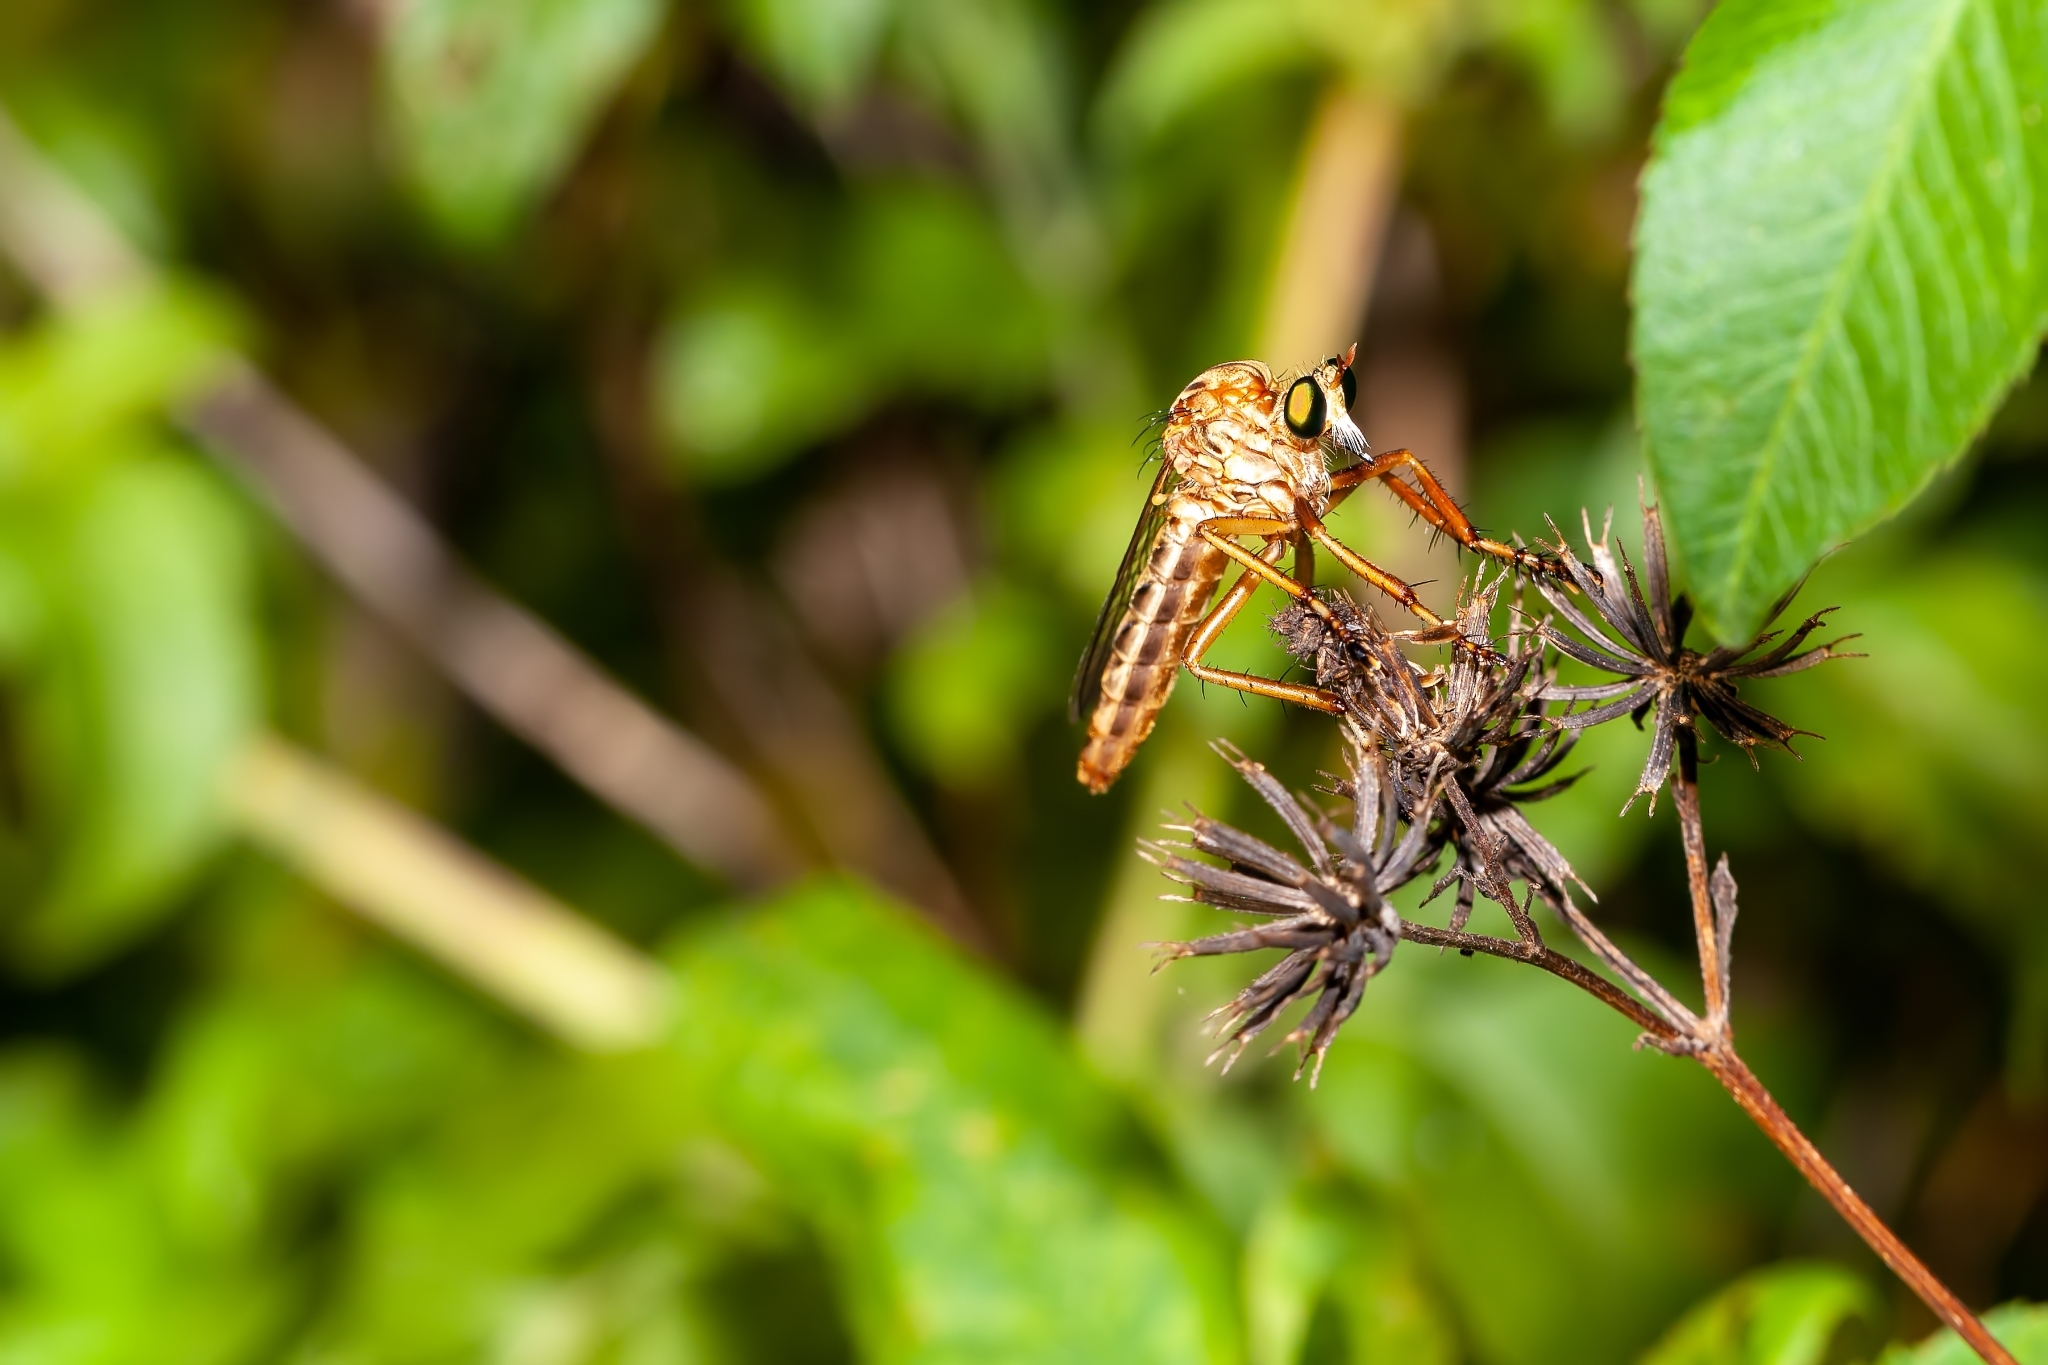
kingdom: Animalia
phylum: Arthropoda
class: Insecta
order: Diptera
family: Asilidae
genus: Diogmites
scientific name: Diogmites salutans
